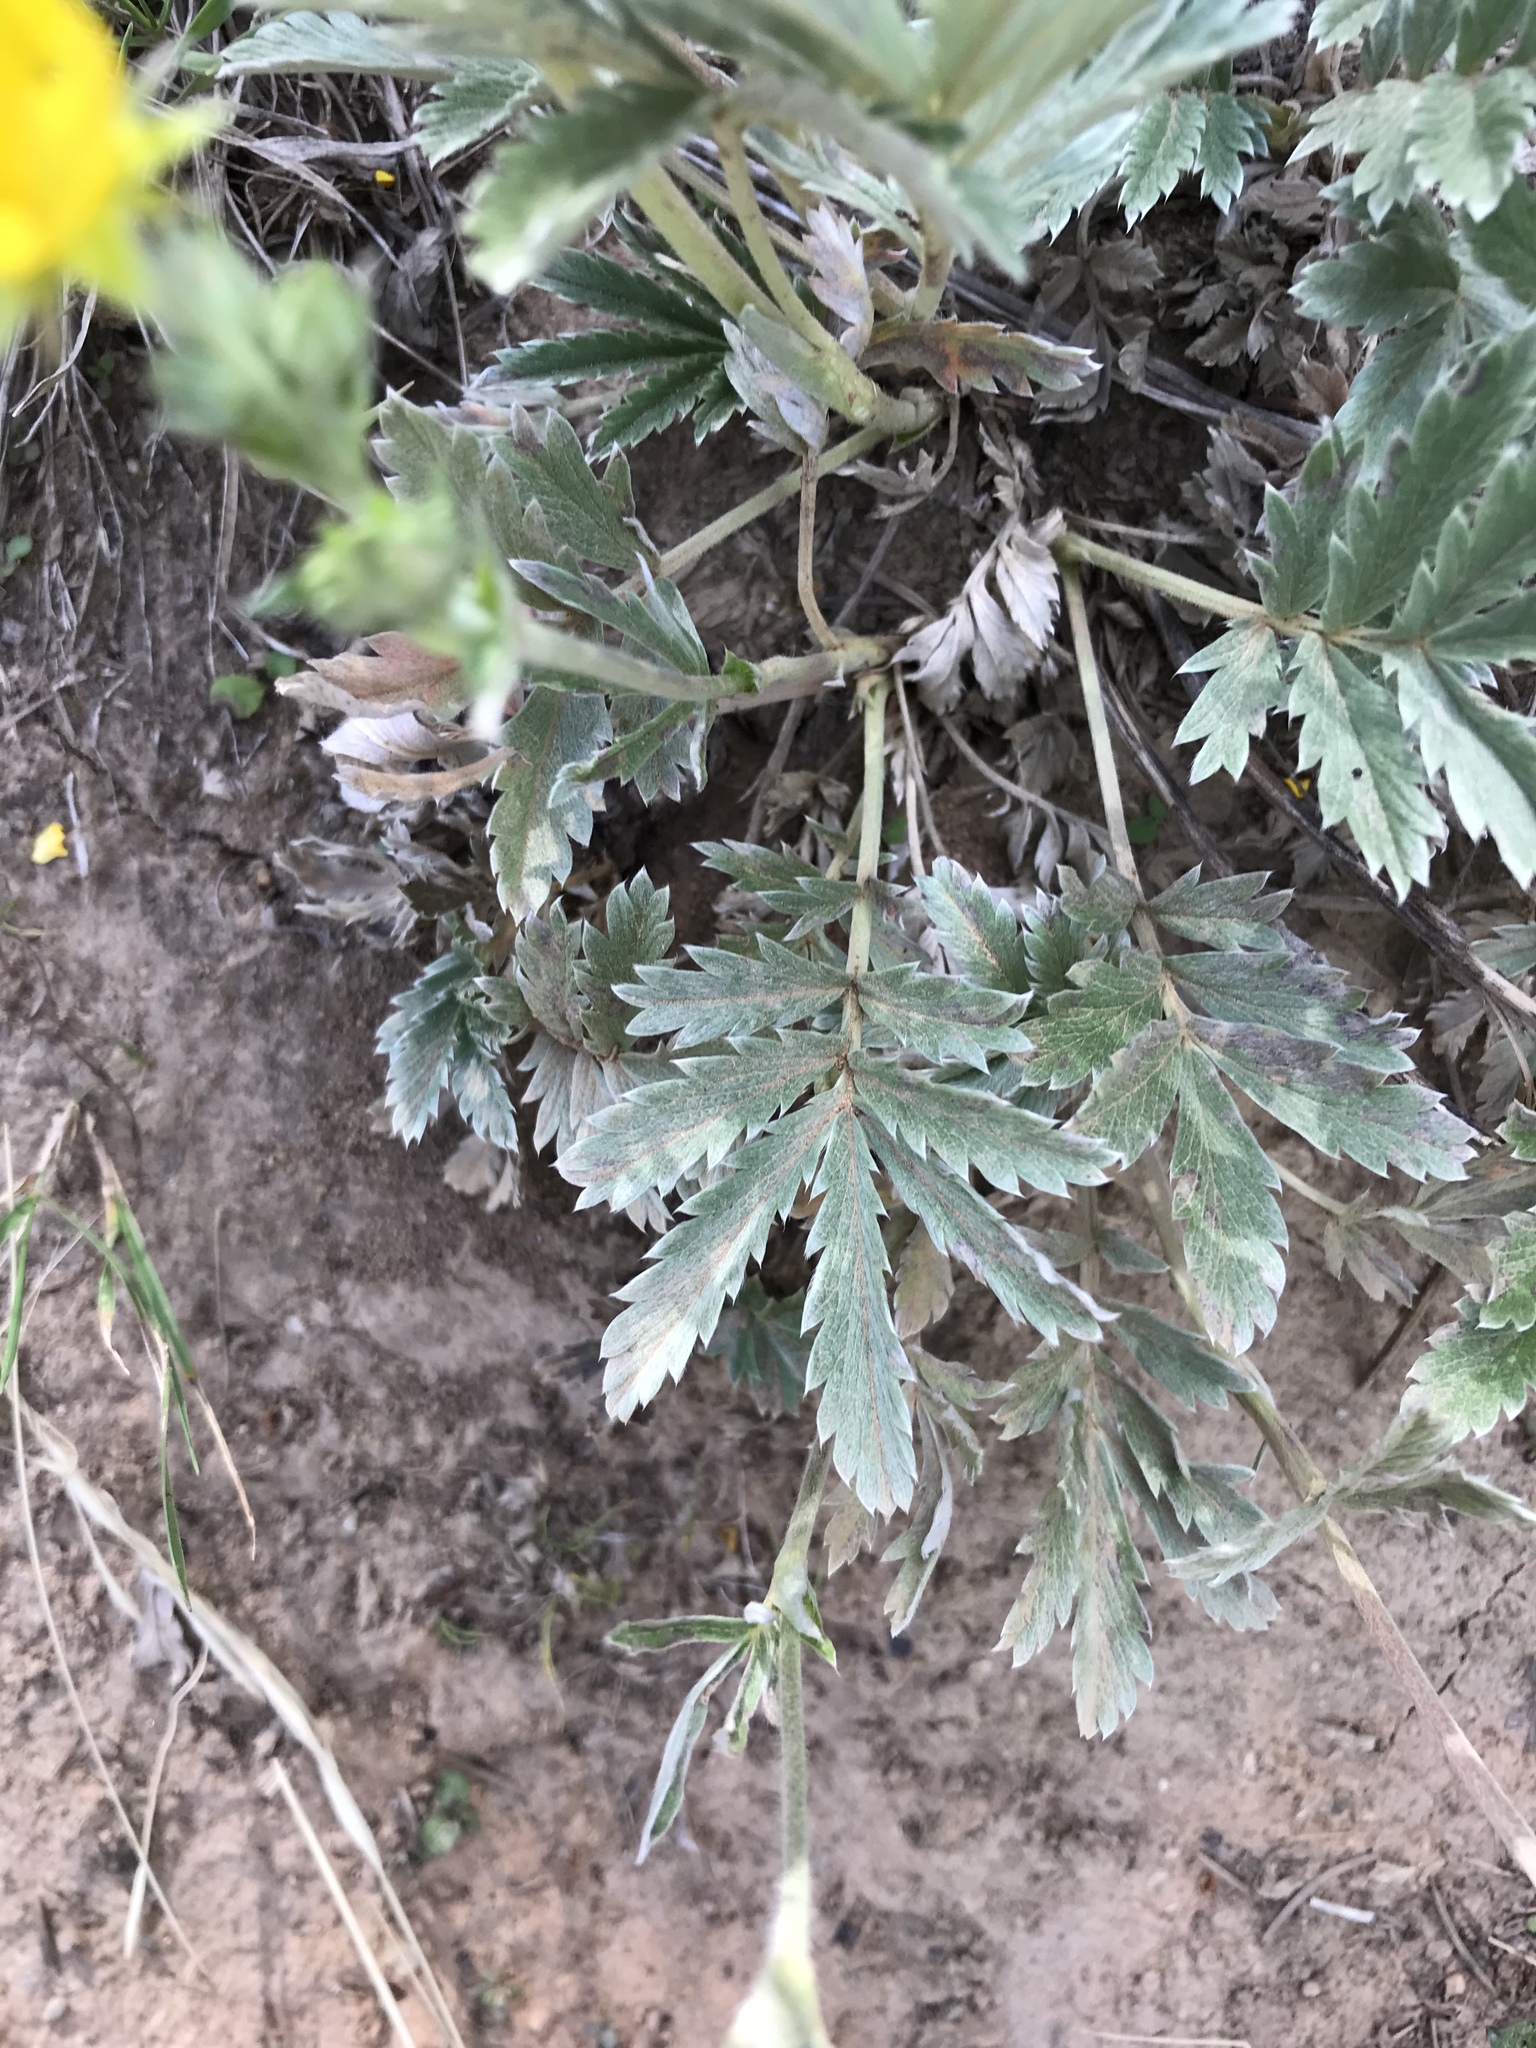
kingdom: Plantae
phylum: Tracheophyta
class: Magnoliopsida
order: Rosales
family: Rosaceae
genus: Potentilla
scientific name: Potentilla hippiana
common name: Woolly cinquefoil
